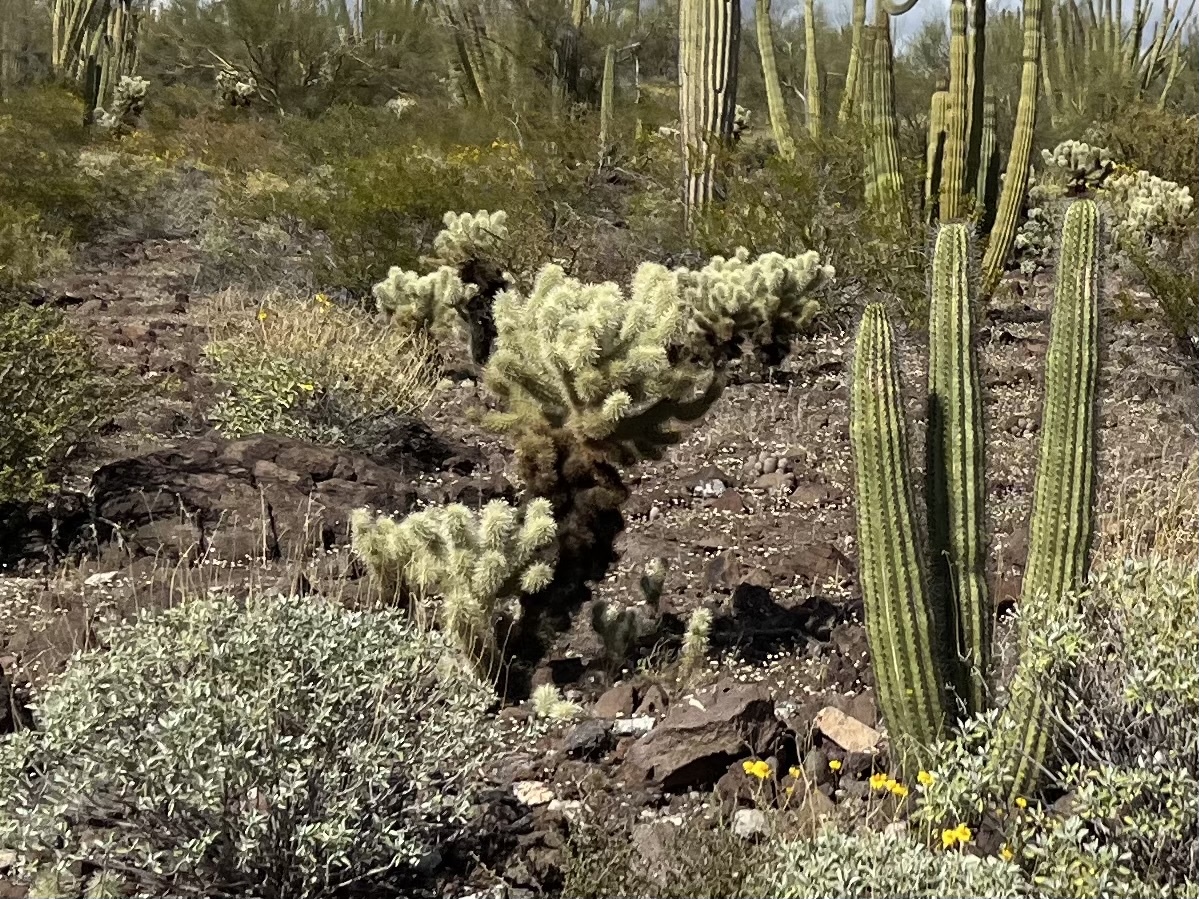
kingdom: Plantae
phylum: Tracheophyta
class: Magnoliopsida
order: Caryophyllales
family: Cactaceae
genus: Cylindropuntia
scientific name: Cylindropuntia fosbergii
